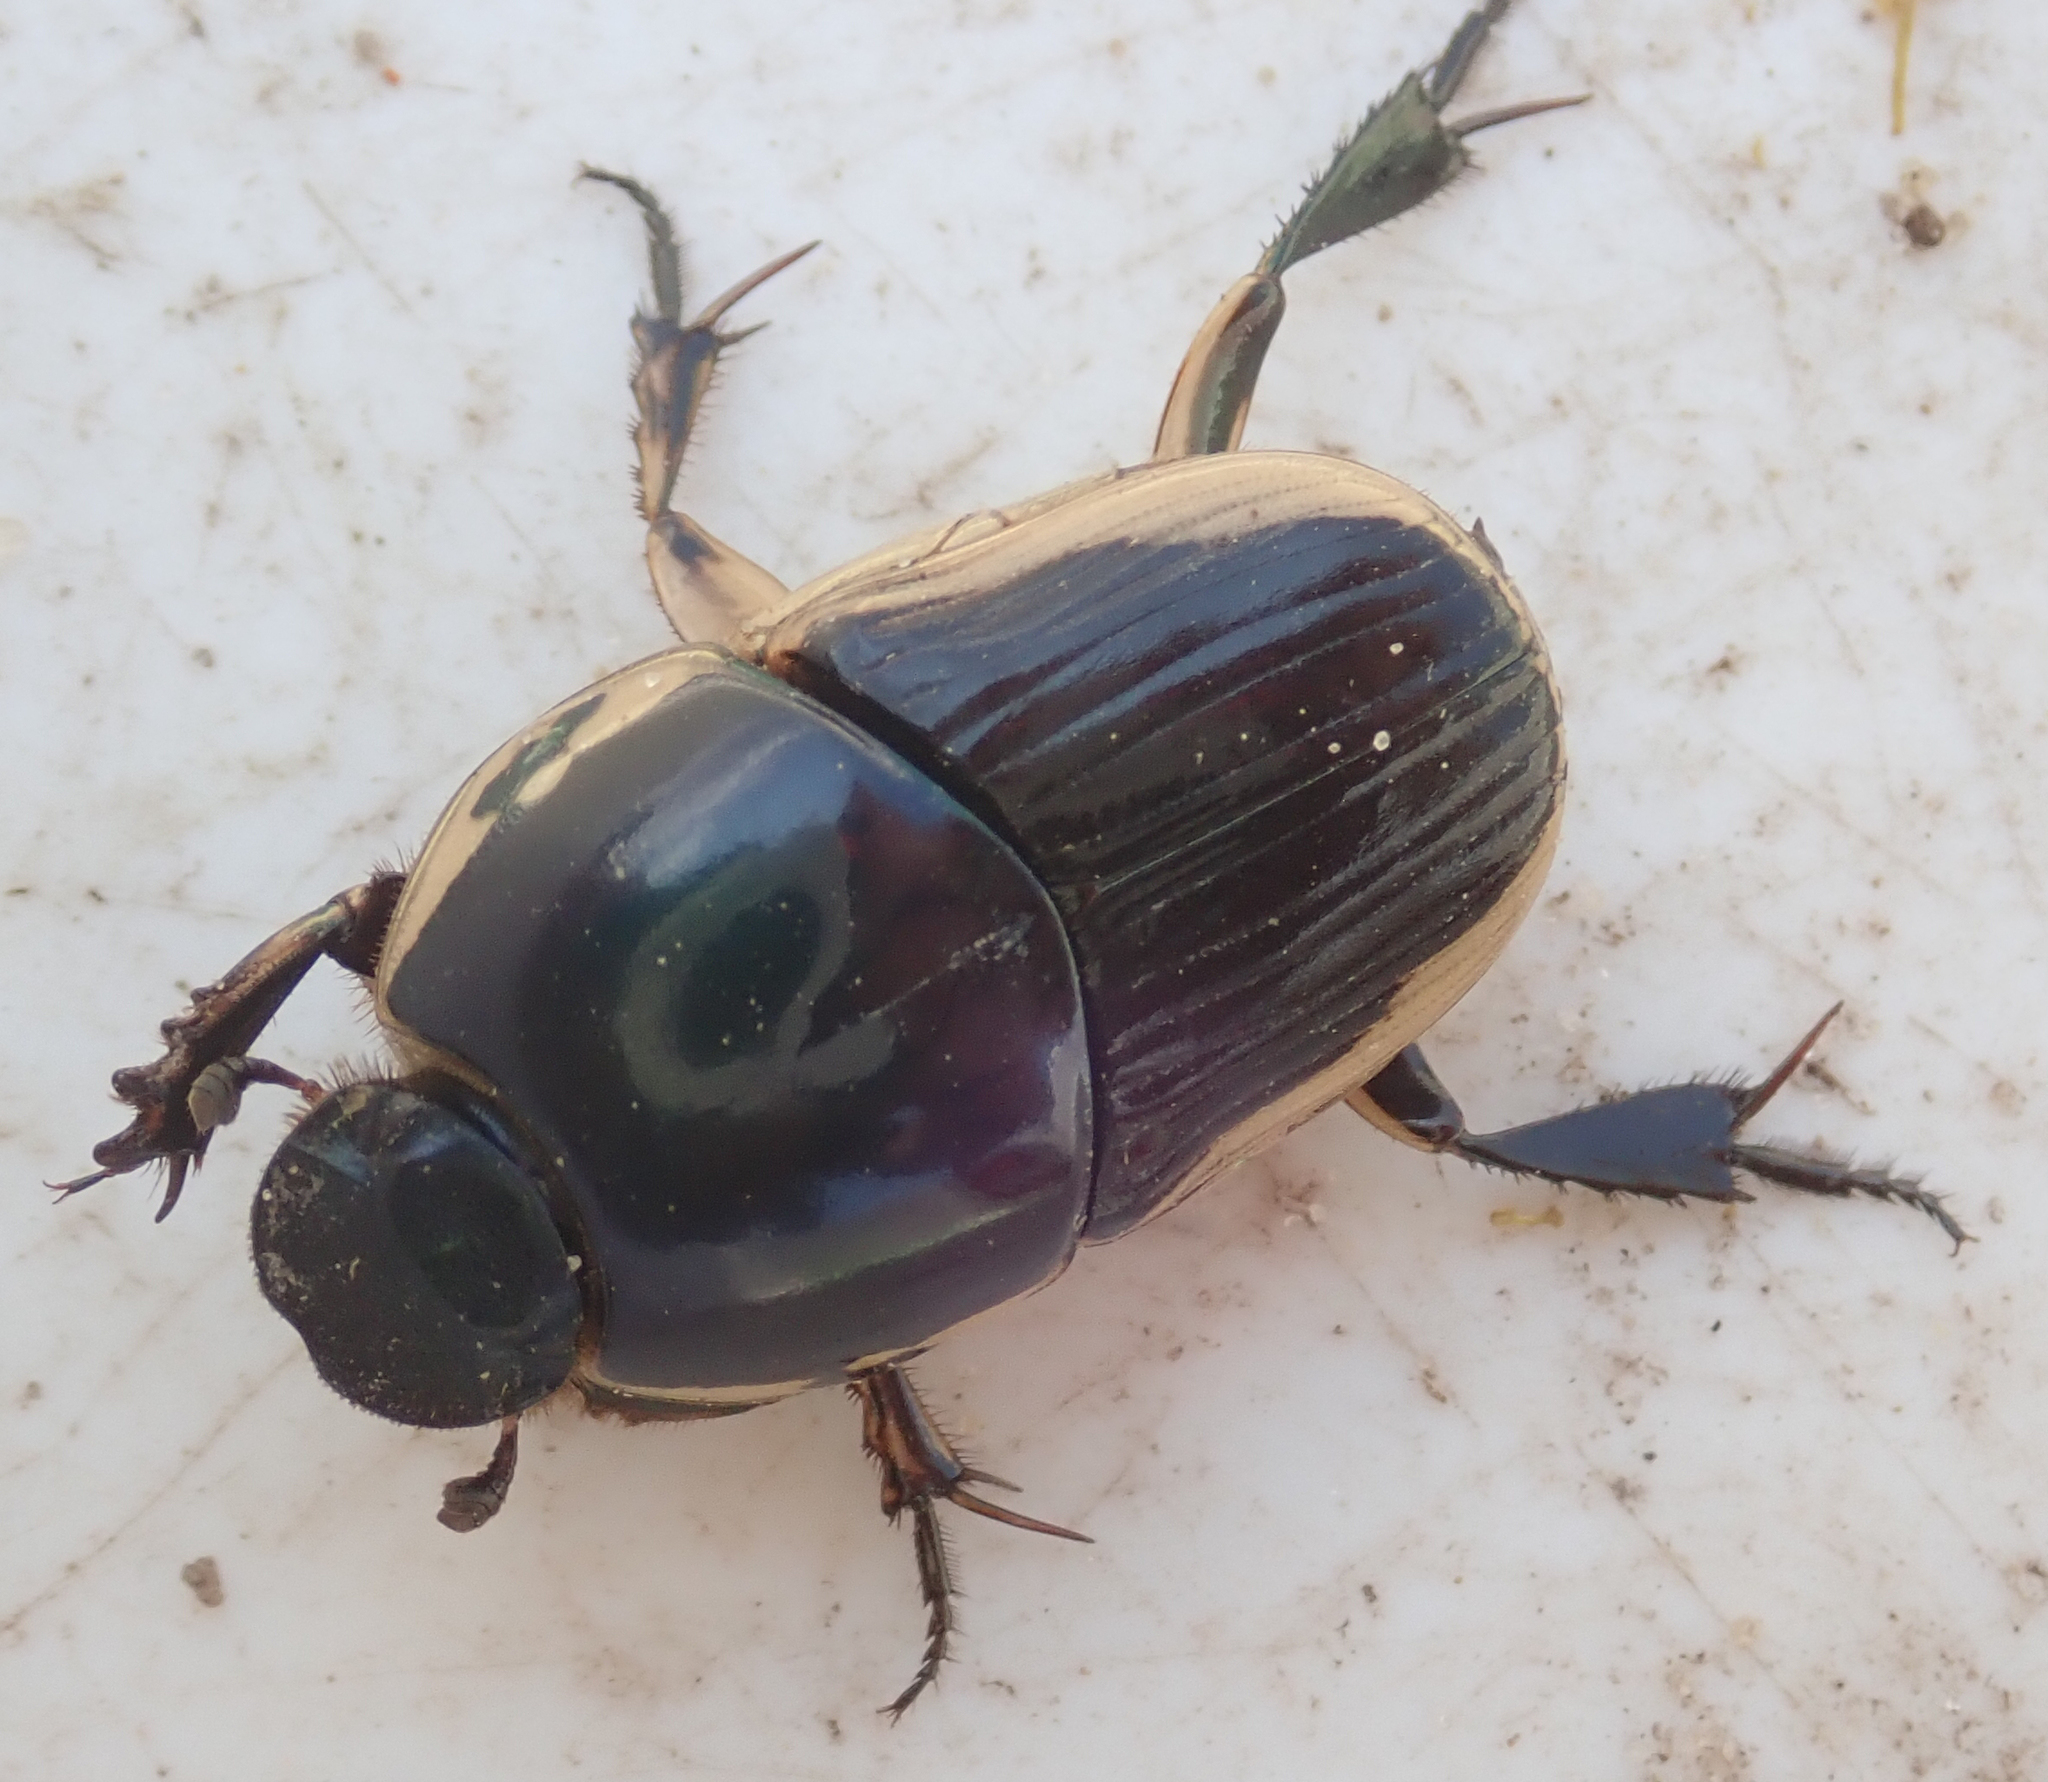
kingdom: Animalia
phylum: Arthropoda
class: Insecta
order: Coleoptera
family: Scarabaeidae
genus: Oniticellus
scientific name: Oniticellus egregius
